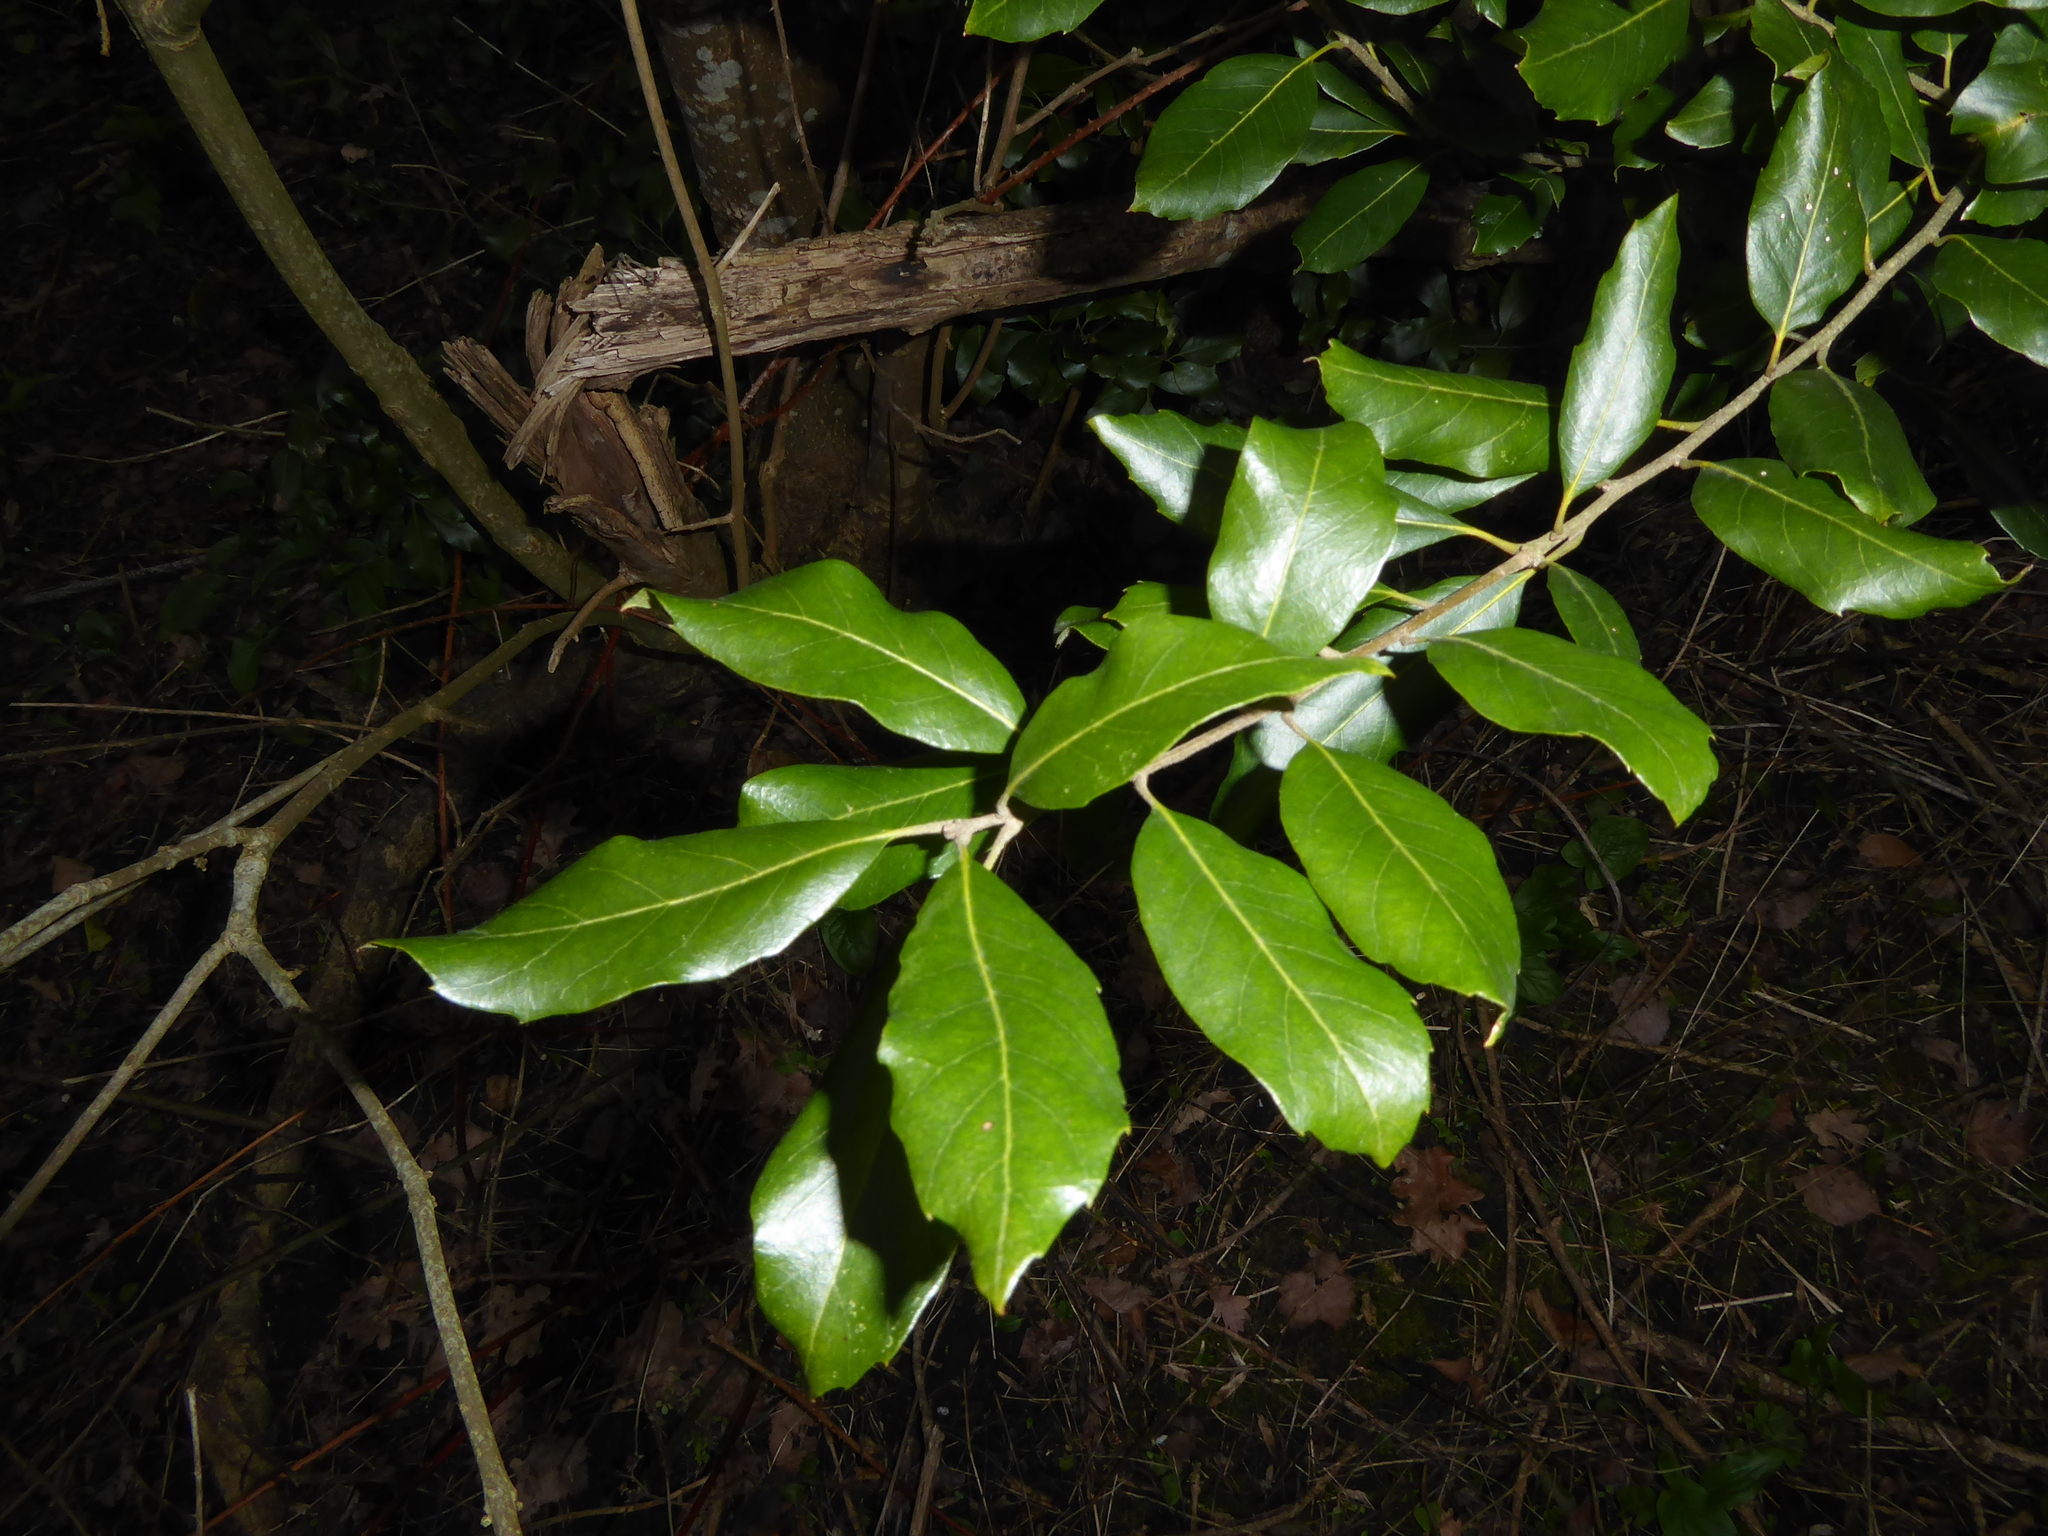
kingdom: Plantae
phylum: Tracheophyta
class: Magnoliopsida
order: Fagales
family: Fagaceae
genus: Quercus
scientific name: Quercus ilex
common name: Evergreen oak
